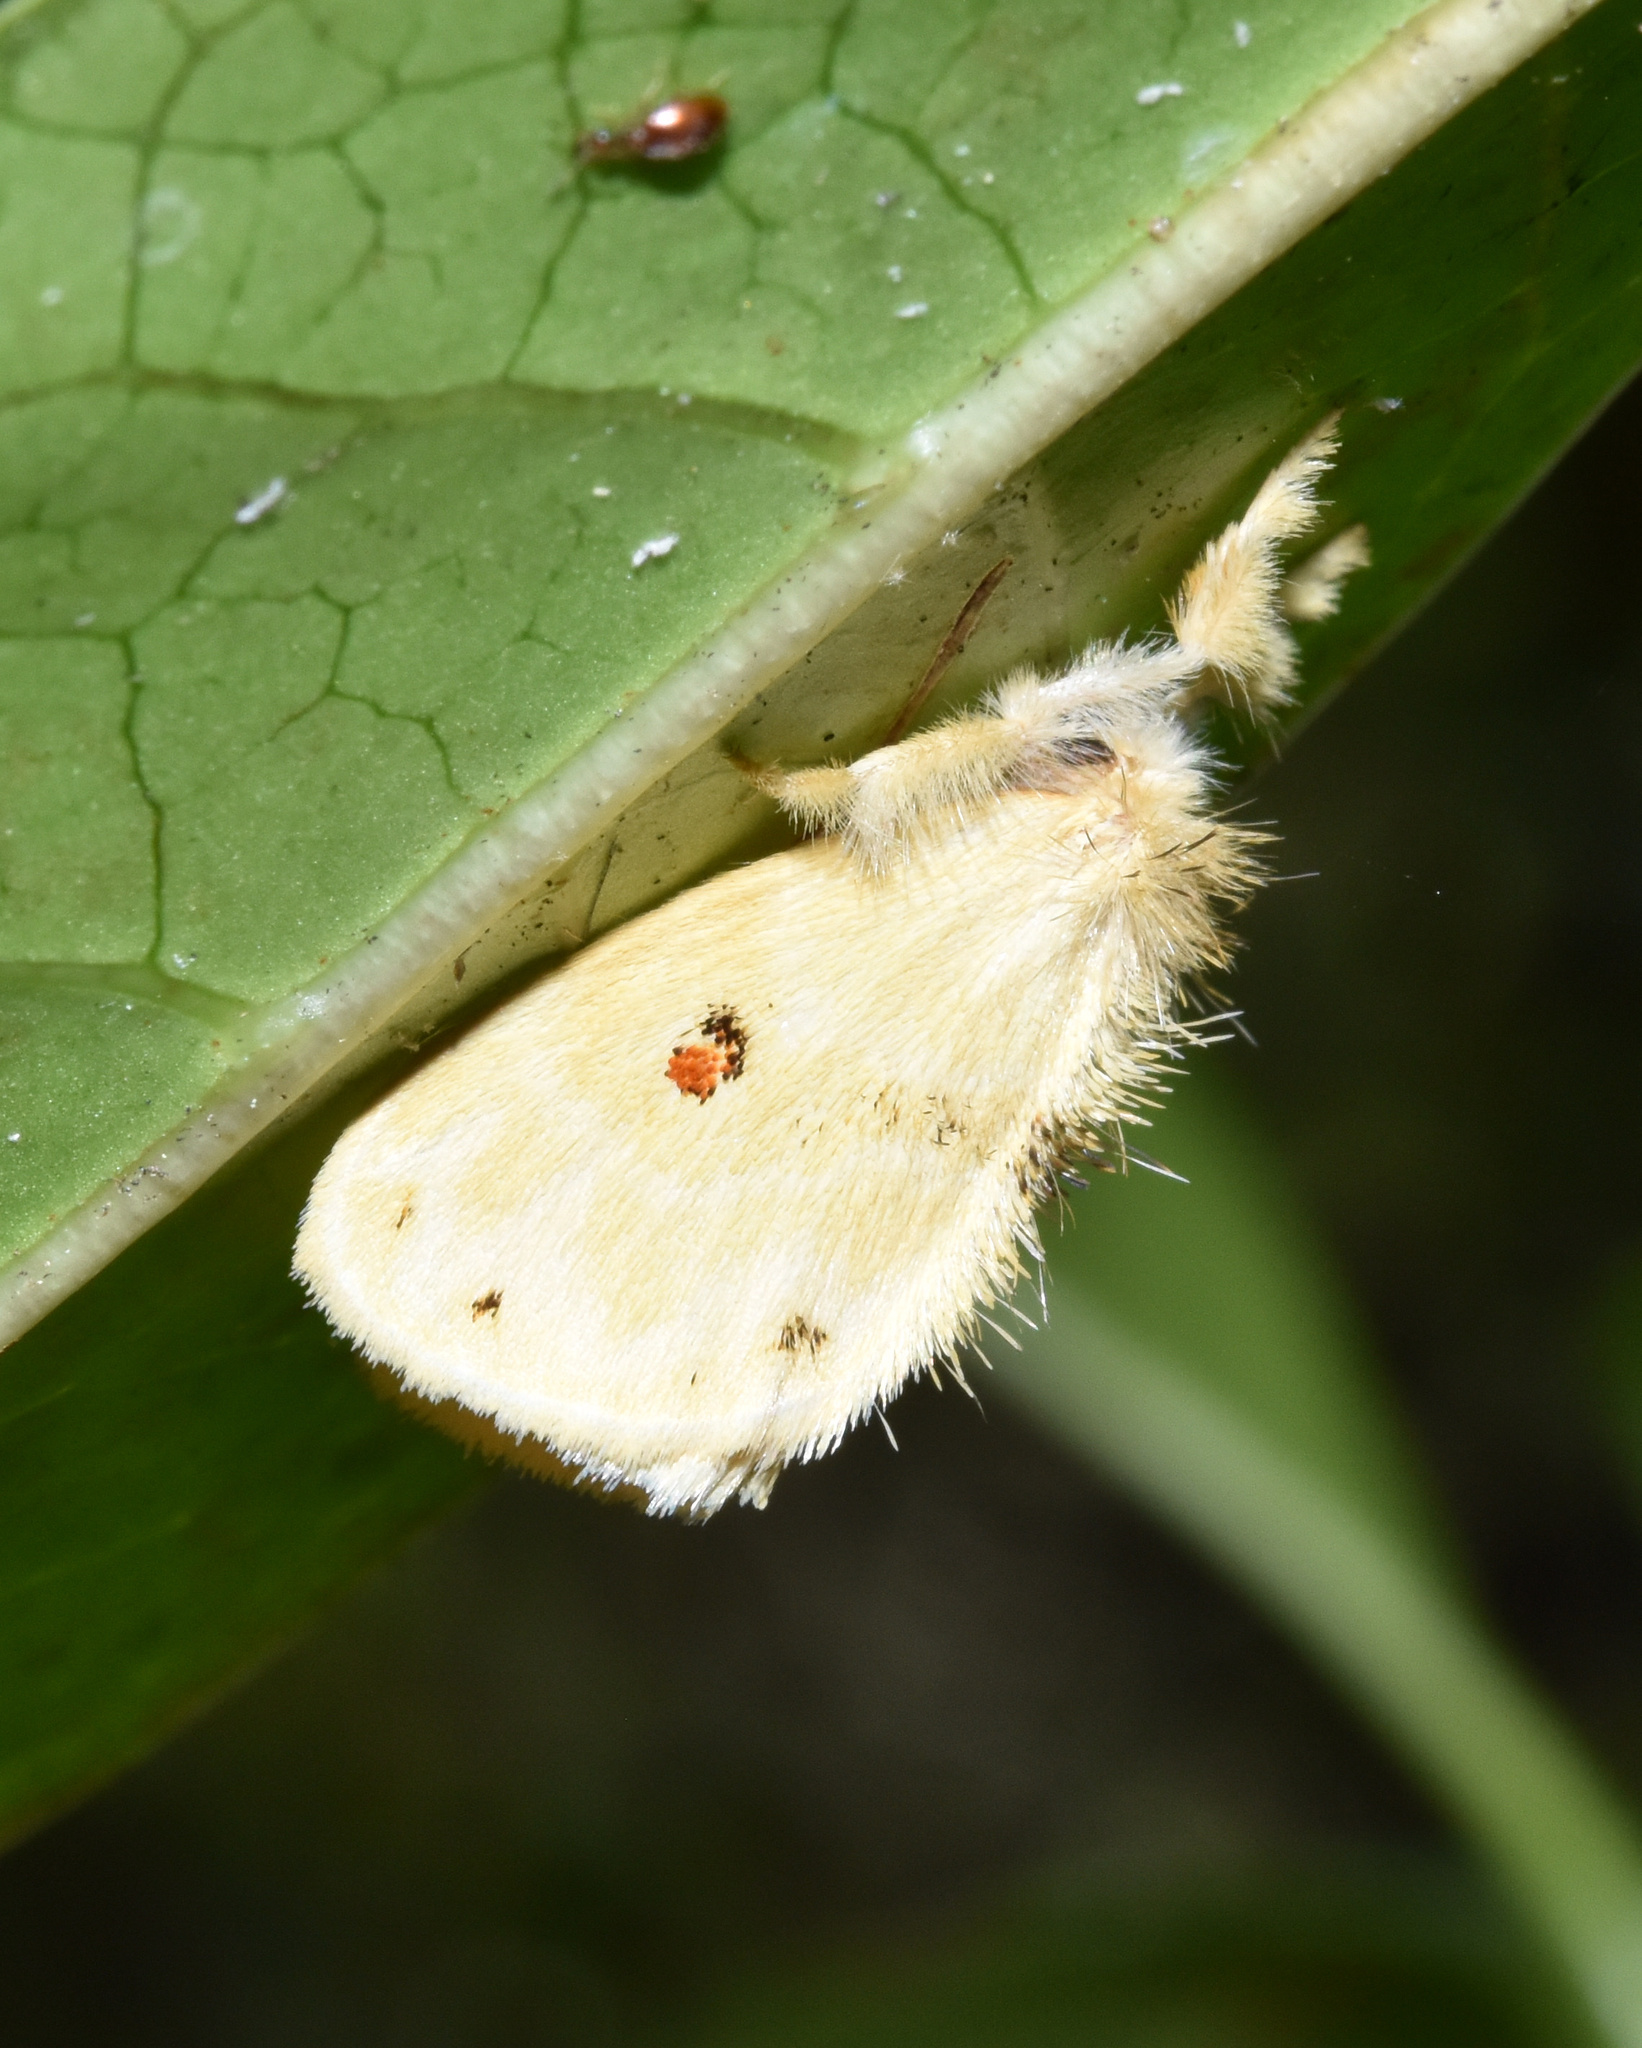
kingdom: Animalia
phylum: Arthropoda
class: Insecta
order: Lepidoptera
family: Erebidae
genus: Euproctis
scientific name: Euproctis bicolor
